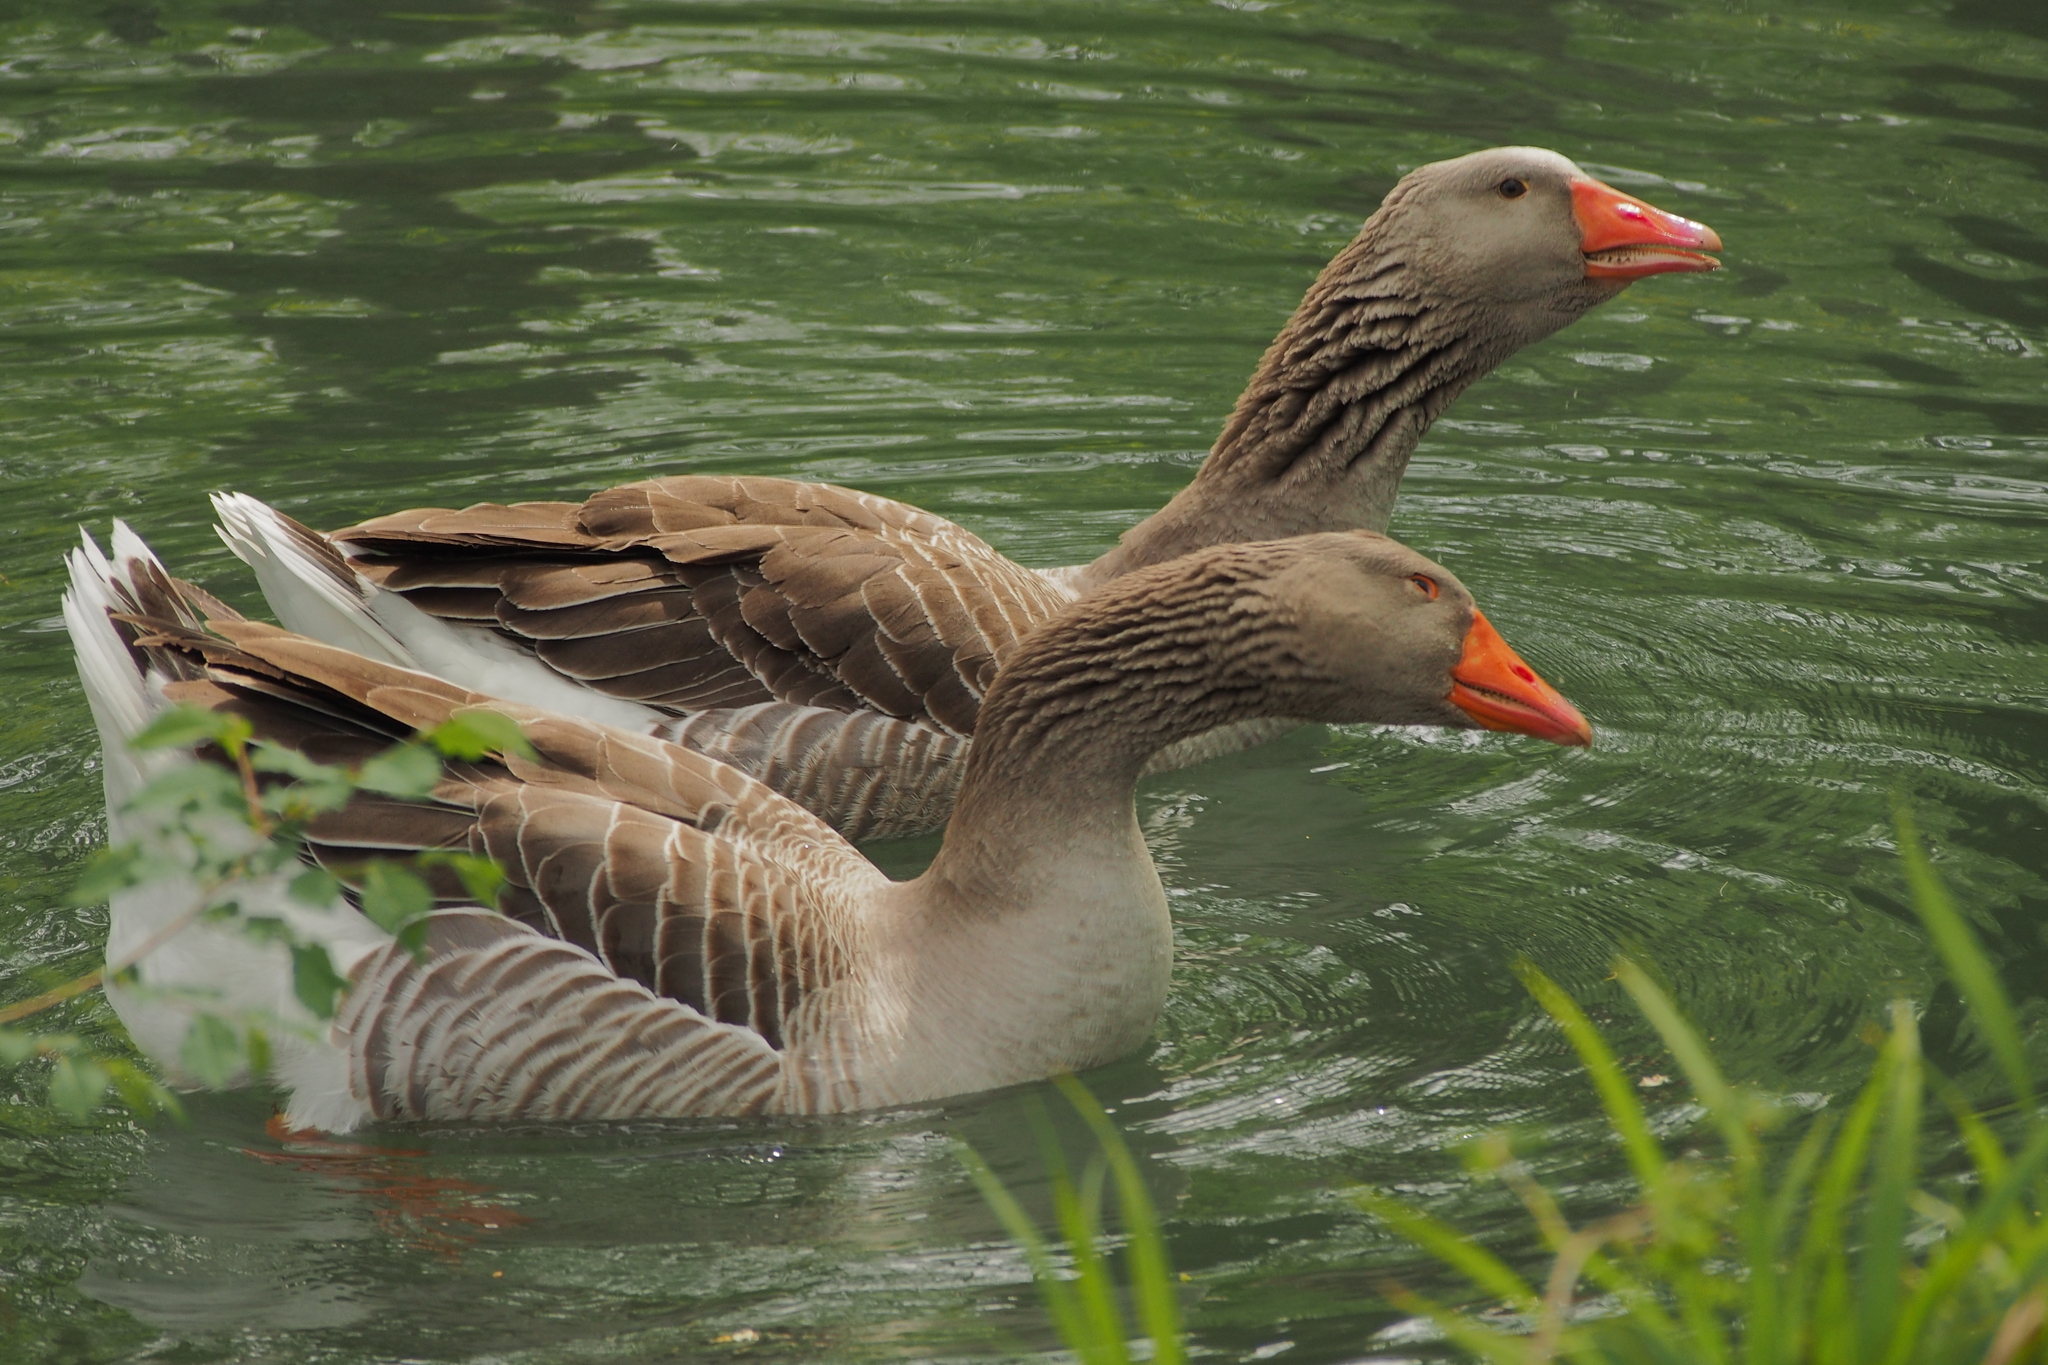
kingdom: Animalia
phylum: Chordata
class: Aves
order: Anseriformes
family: Anatidae
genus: Anser
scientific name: Anser anser
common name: Greylag goose
